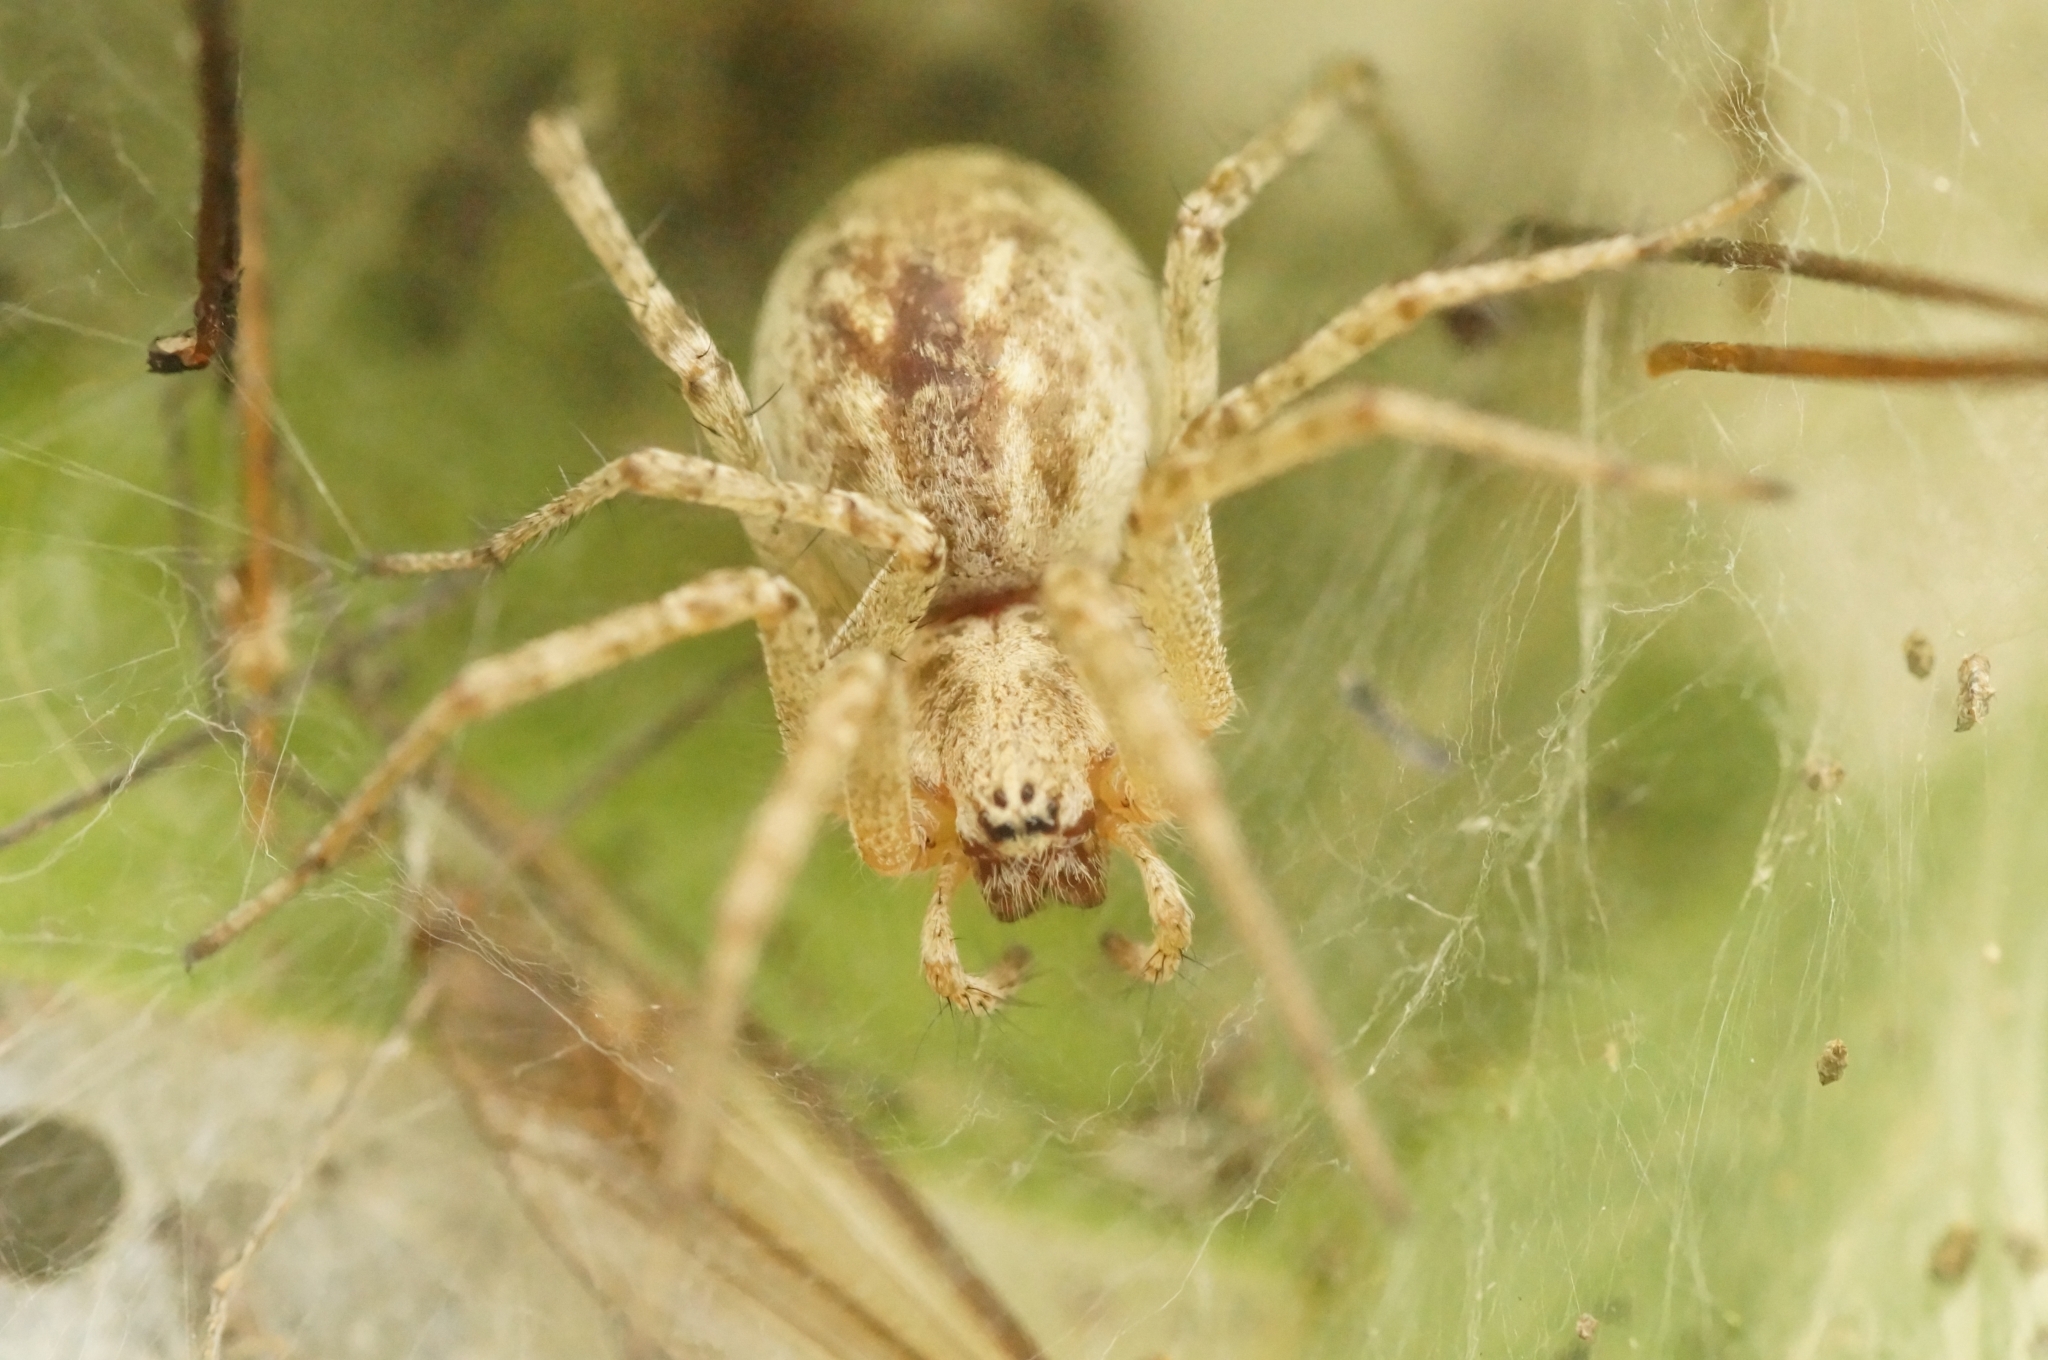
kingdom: Animalia
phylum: Arthropoda
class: Arachnida
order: Araneae
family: Agelenidae
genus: Allagelena
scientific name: Allagelena gracilens
